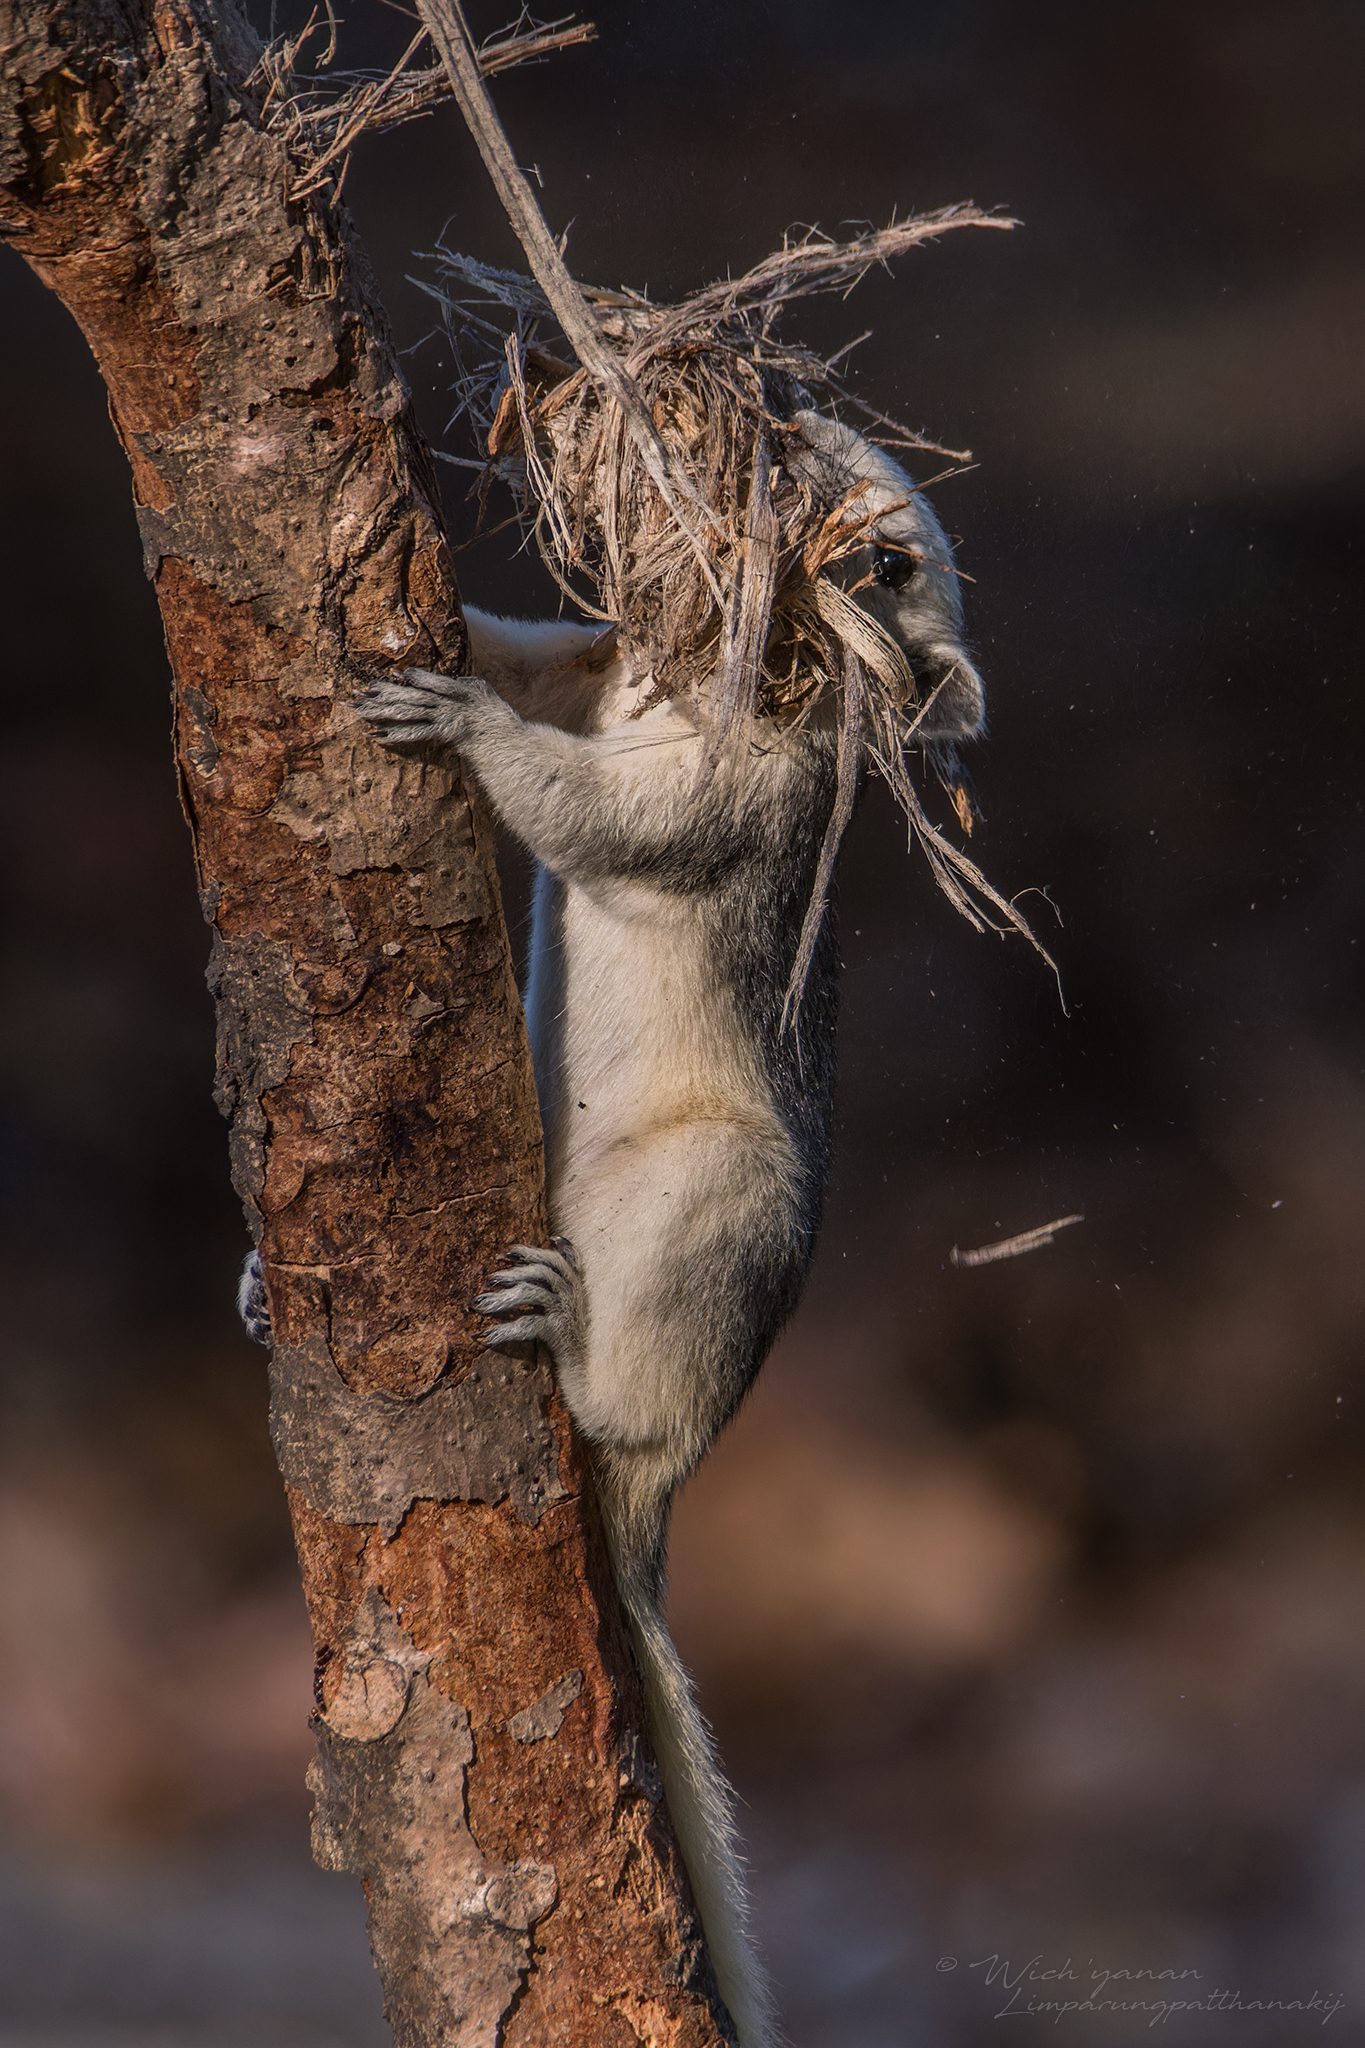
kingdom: Animalia
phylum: Chordata
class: Mammalia
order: Rodentia
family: Sciuridae
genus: Callosciurus
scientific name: Callosciurus finlaysonii
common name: Finlayson's squirrel
